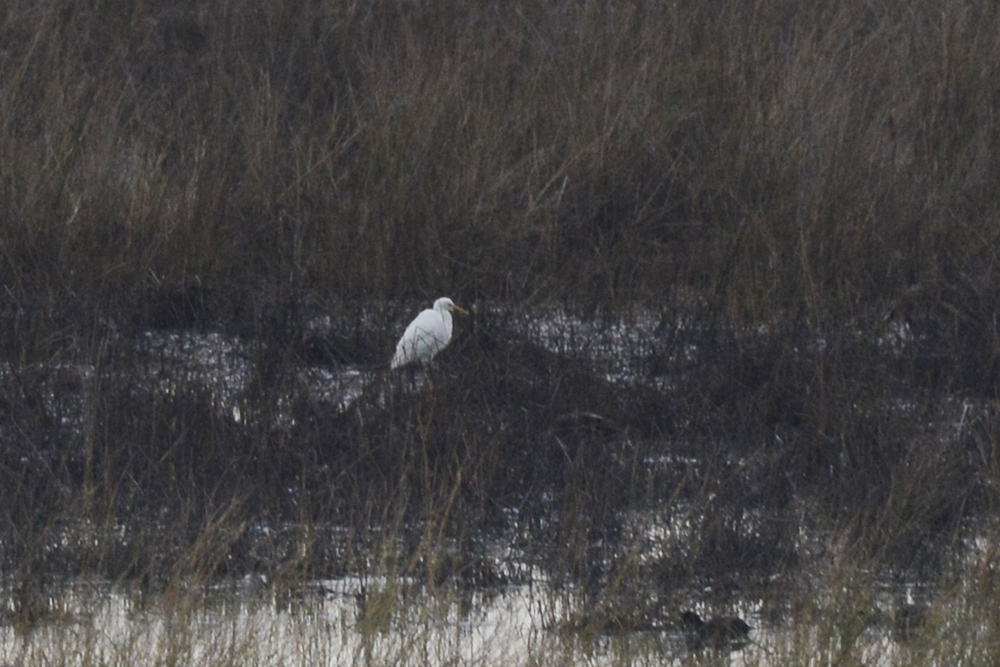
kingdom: Animalia
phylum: Chordata
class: Aves
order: Pelecaniformes
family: Ardeidae
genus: Egretta
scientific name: Egretta intermedia
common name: Intermediate egret
